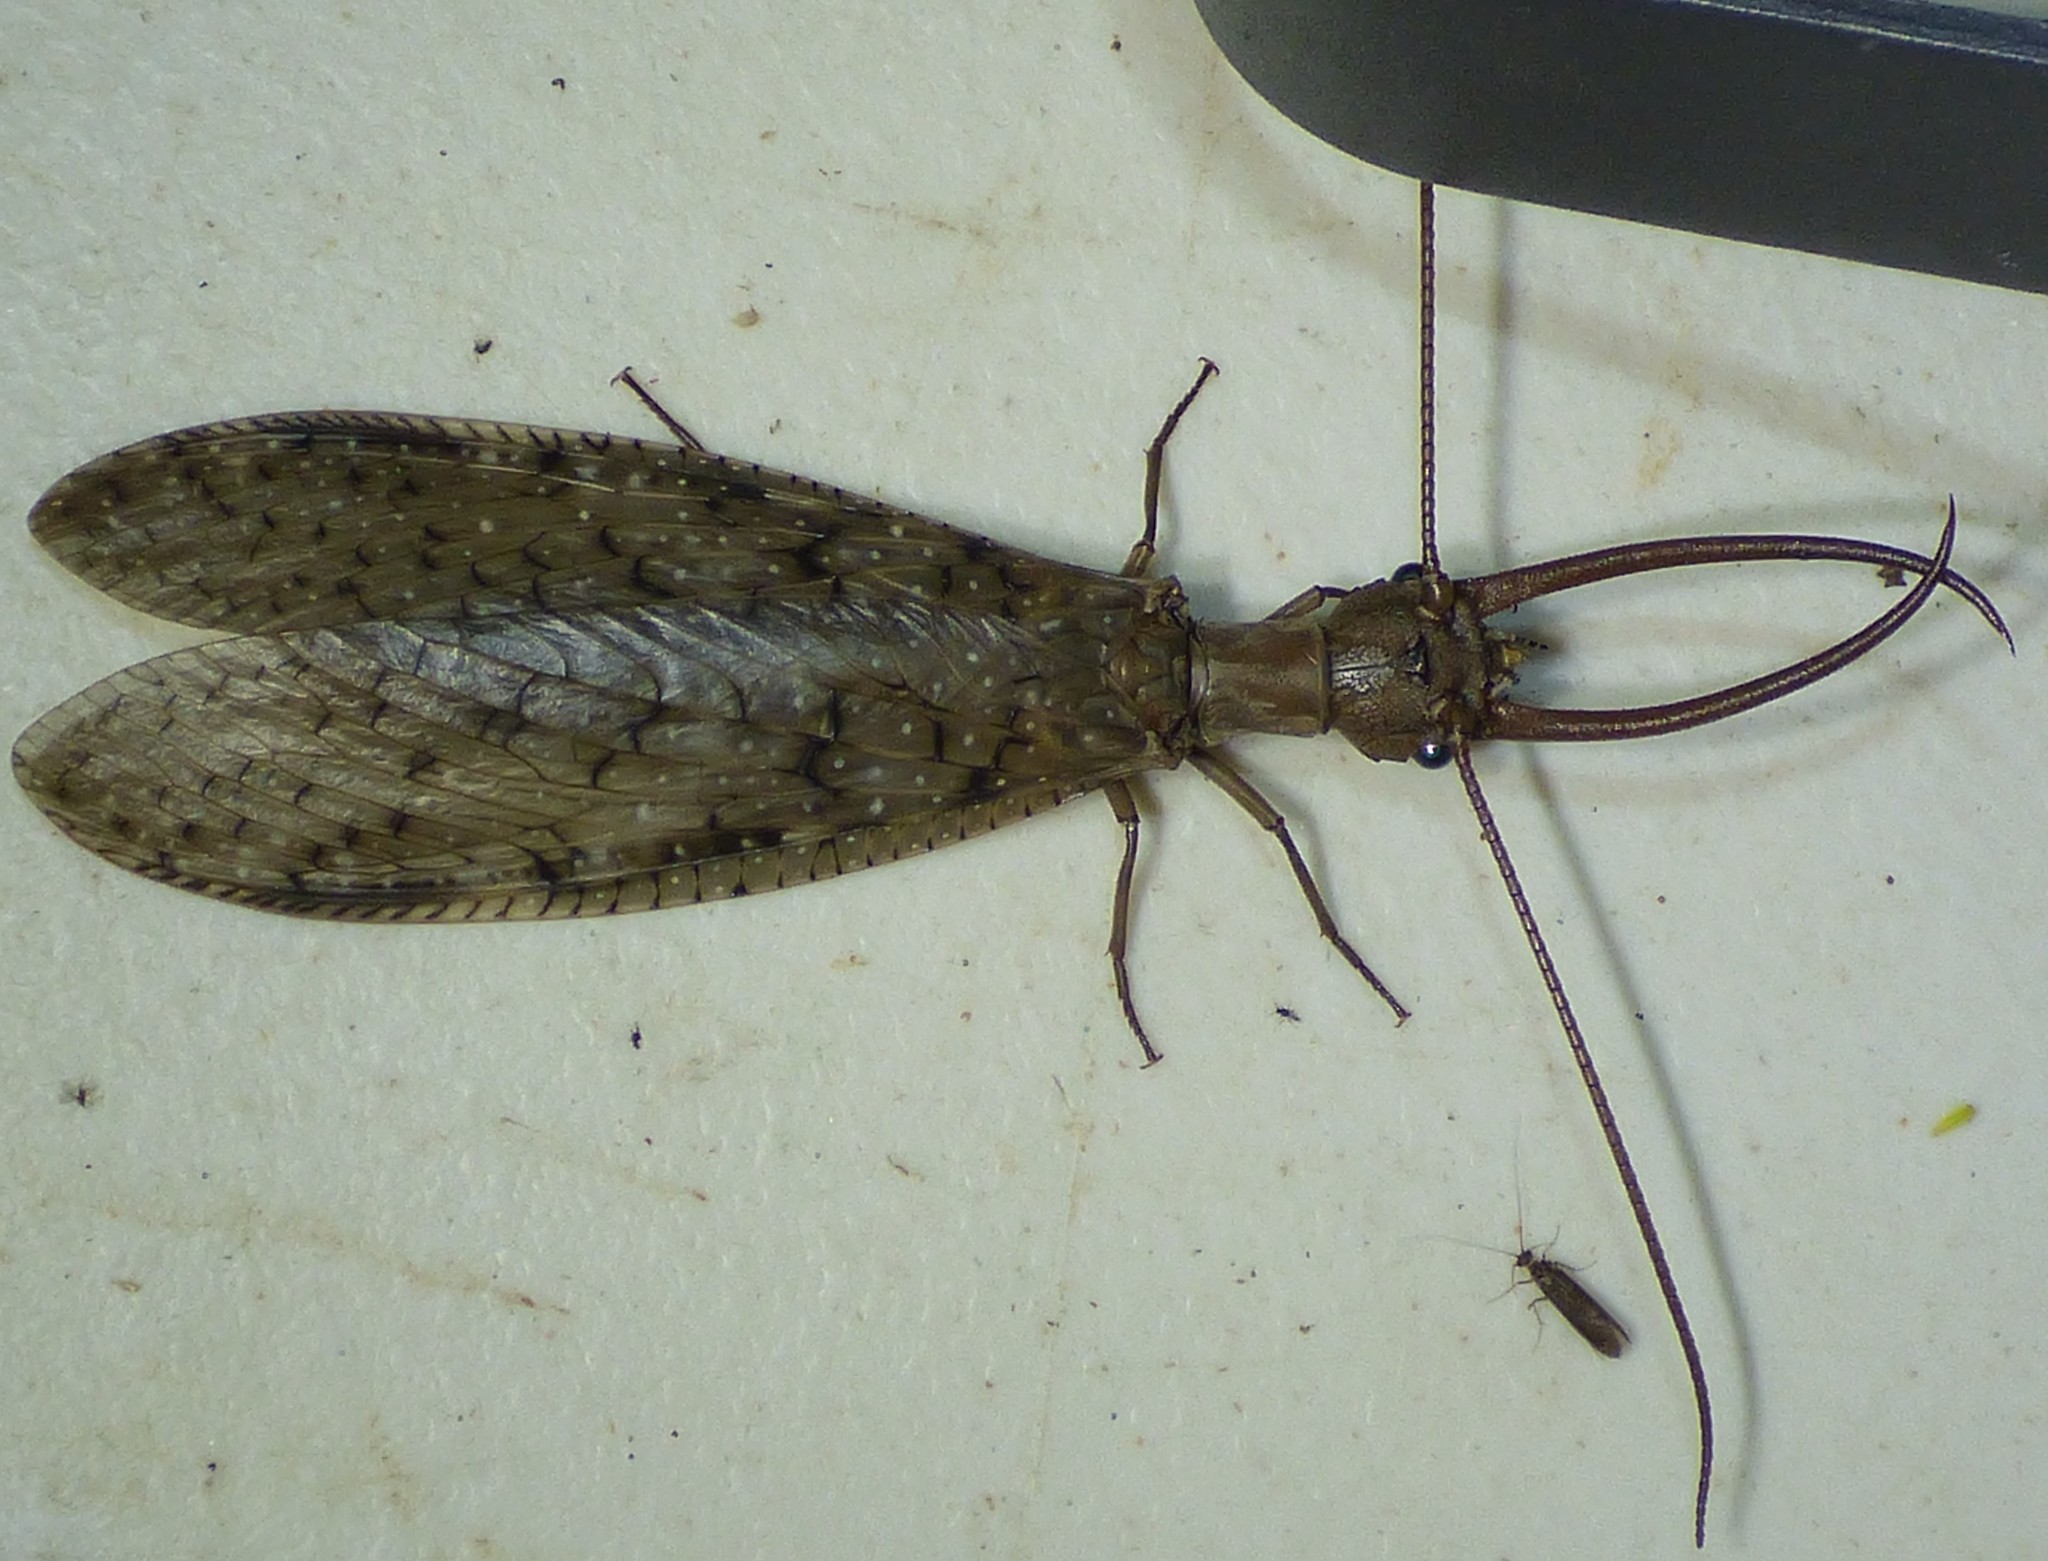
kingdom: Animalia
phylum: Arthropoda
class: Insecta
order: Megaloptera
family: Corydalidae
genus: Corydalus
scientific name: Corydalus cornutus
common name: Dobsonfly
